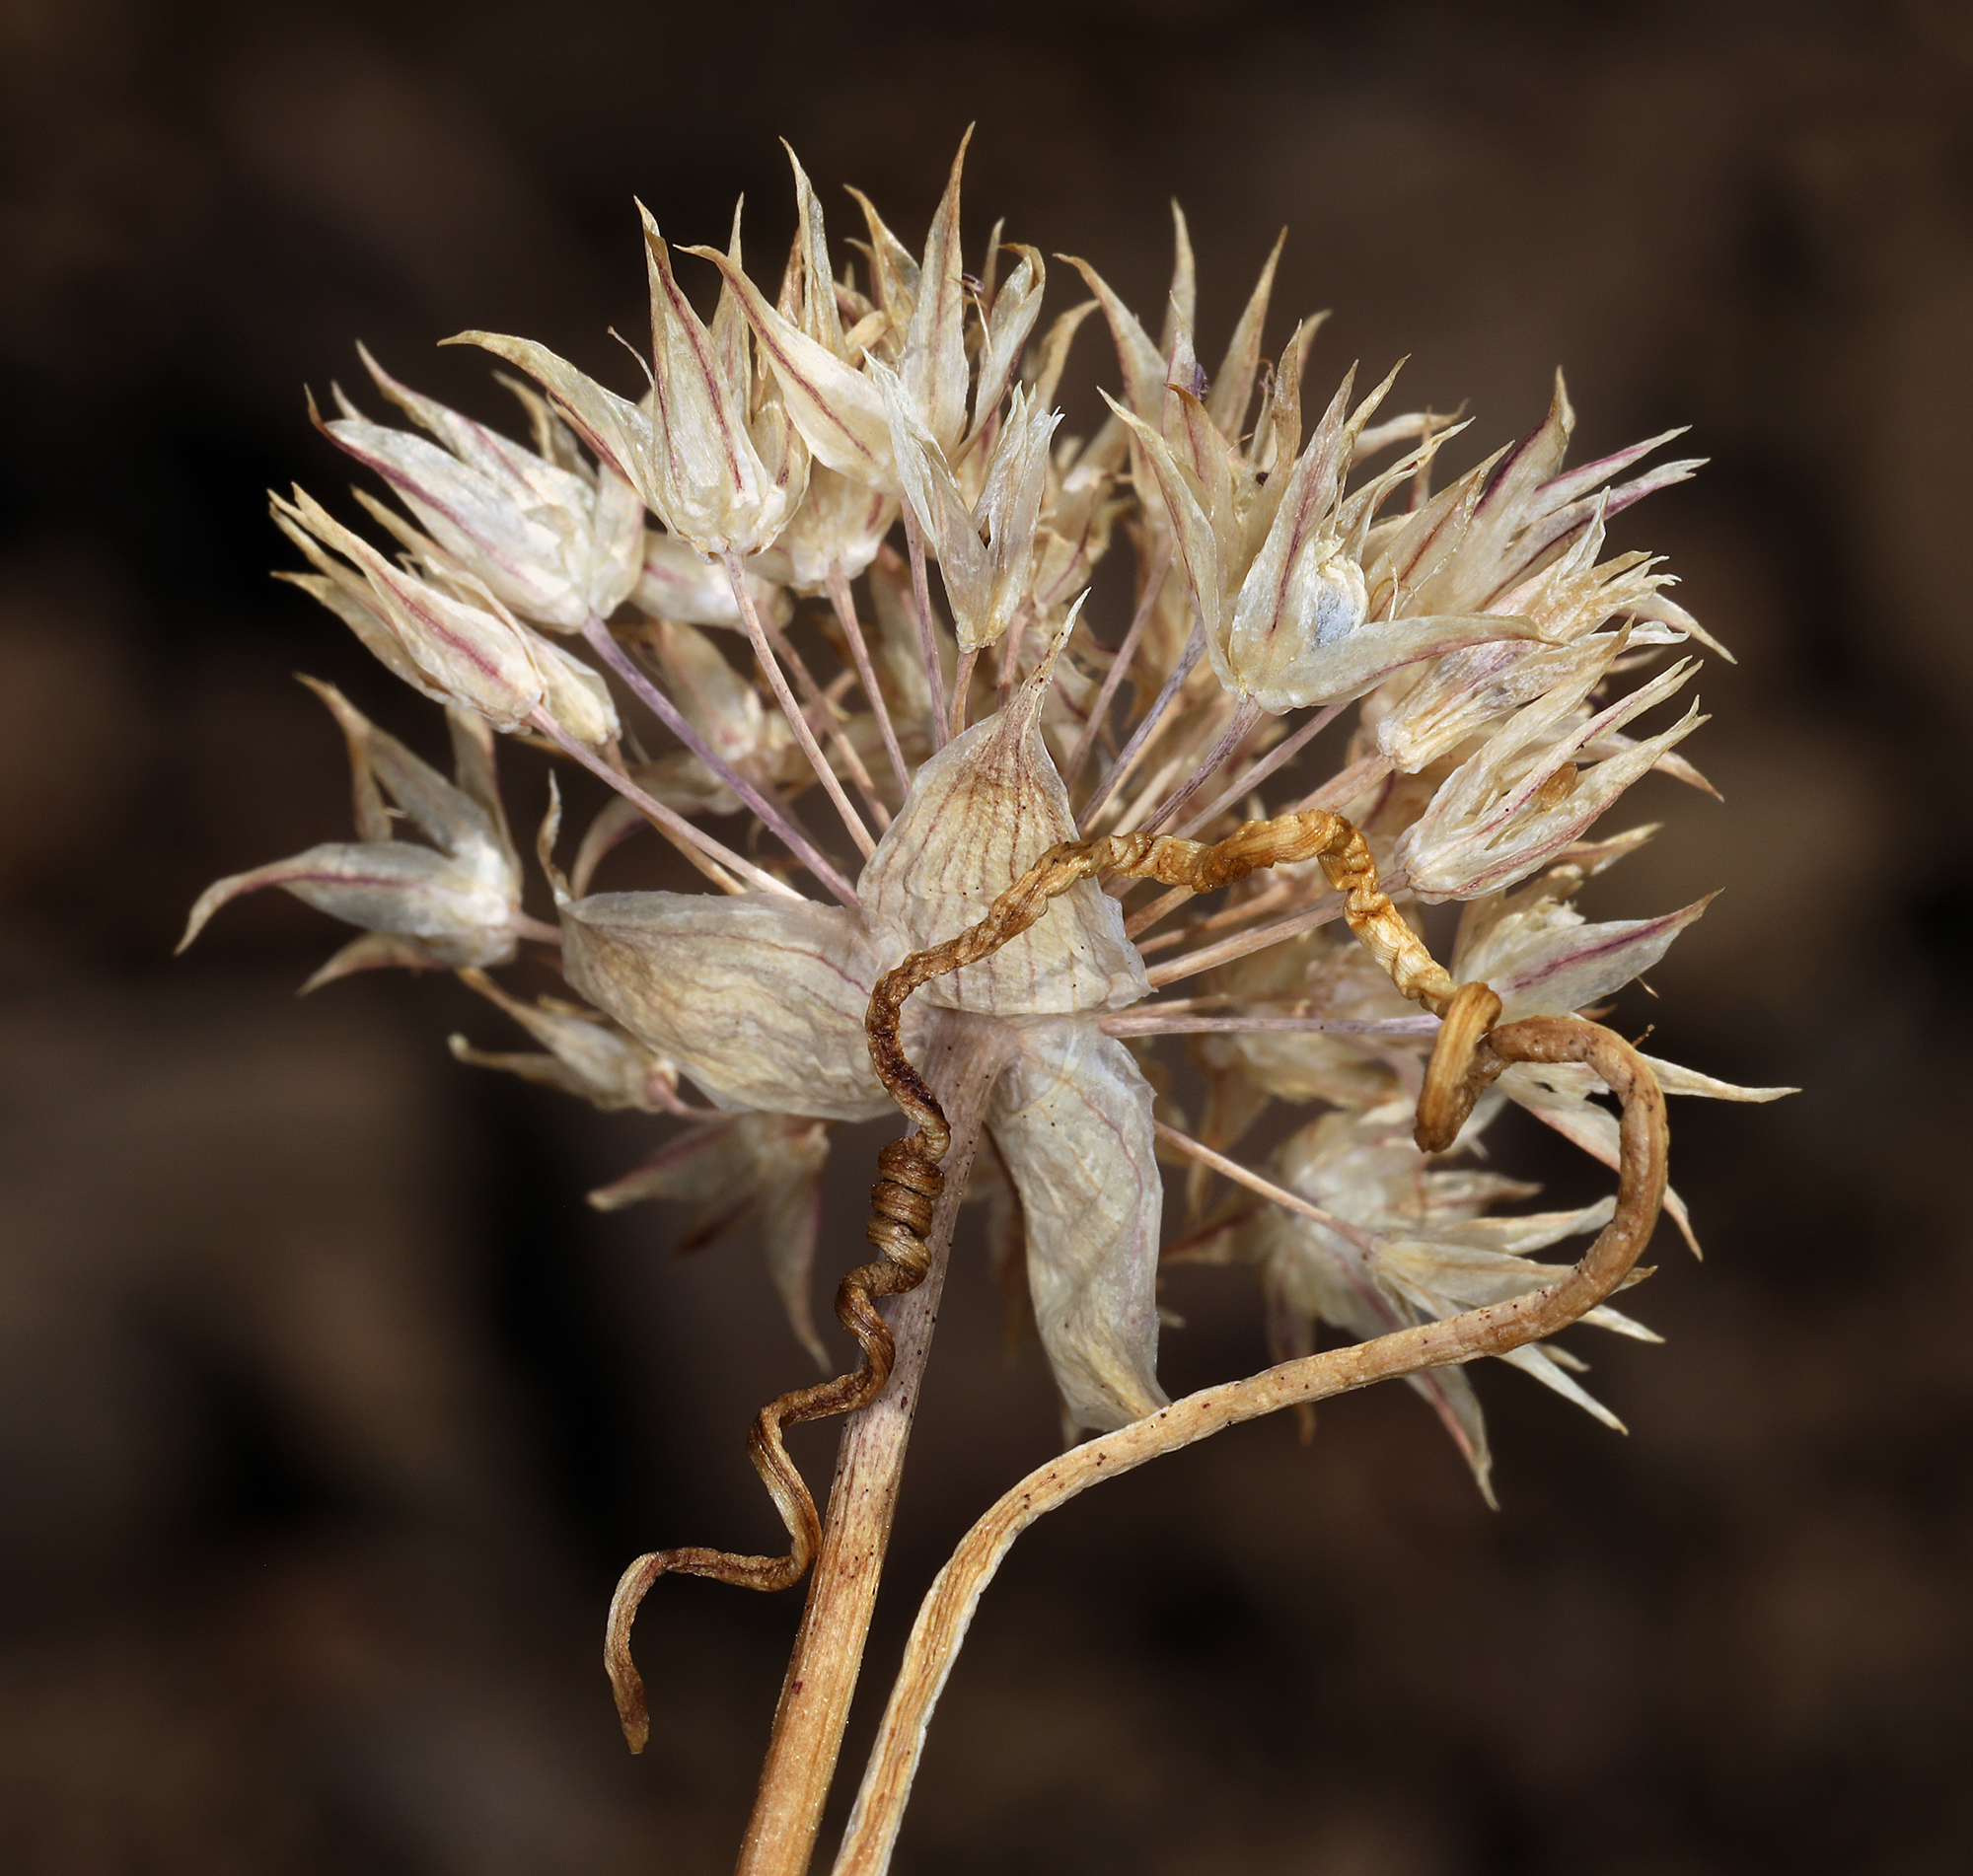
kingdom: Plantae
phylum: Tracheophyta
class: Liliopsida
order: Asparagales
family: Amaryllidaceae
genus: Allium
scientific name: Allium atrorubens
